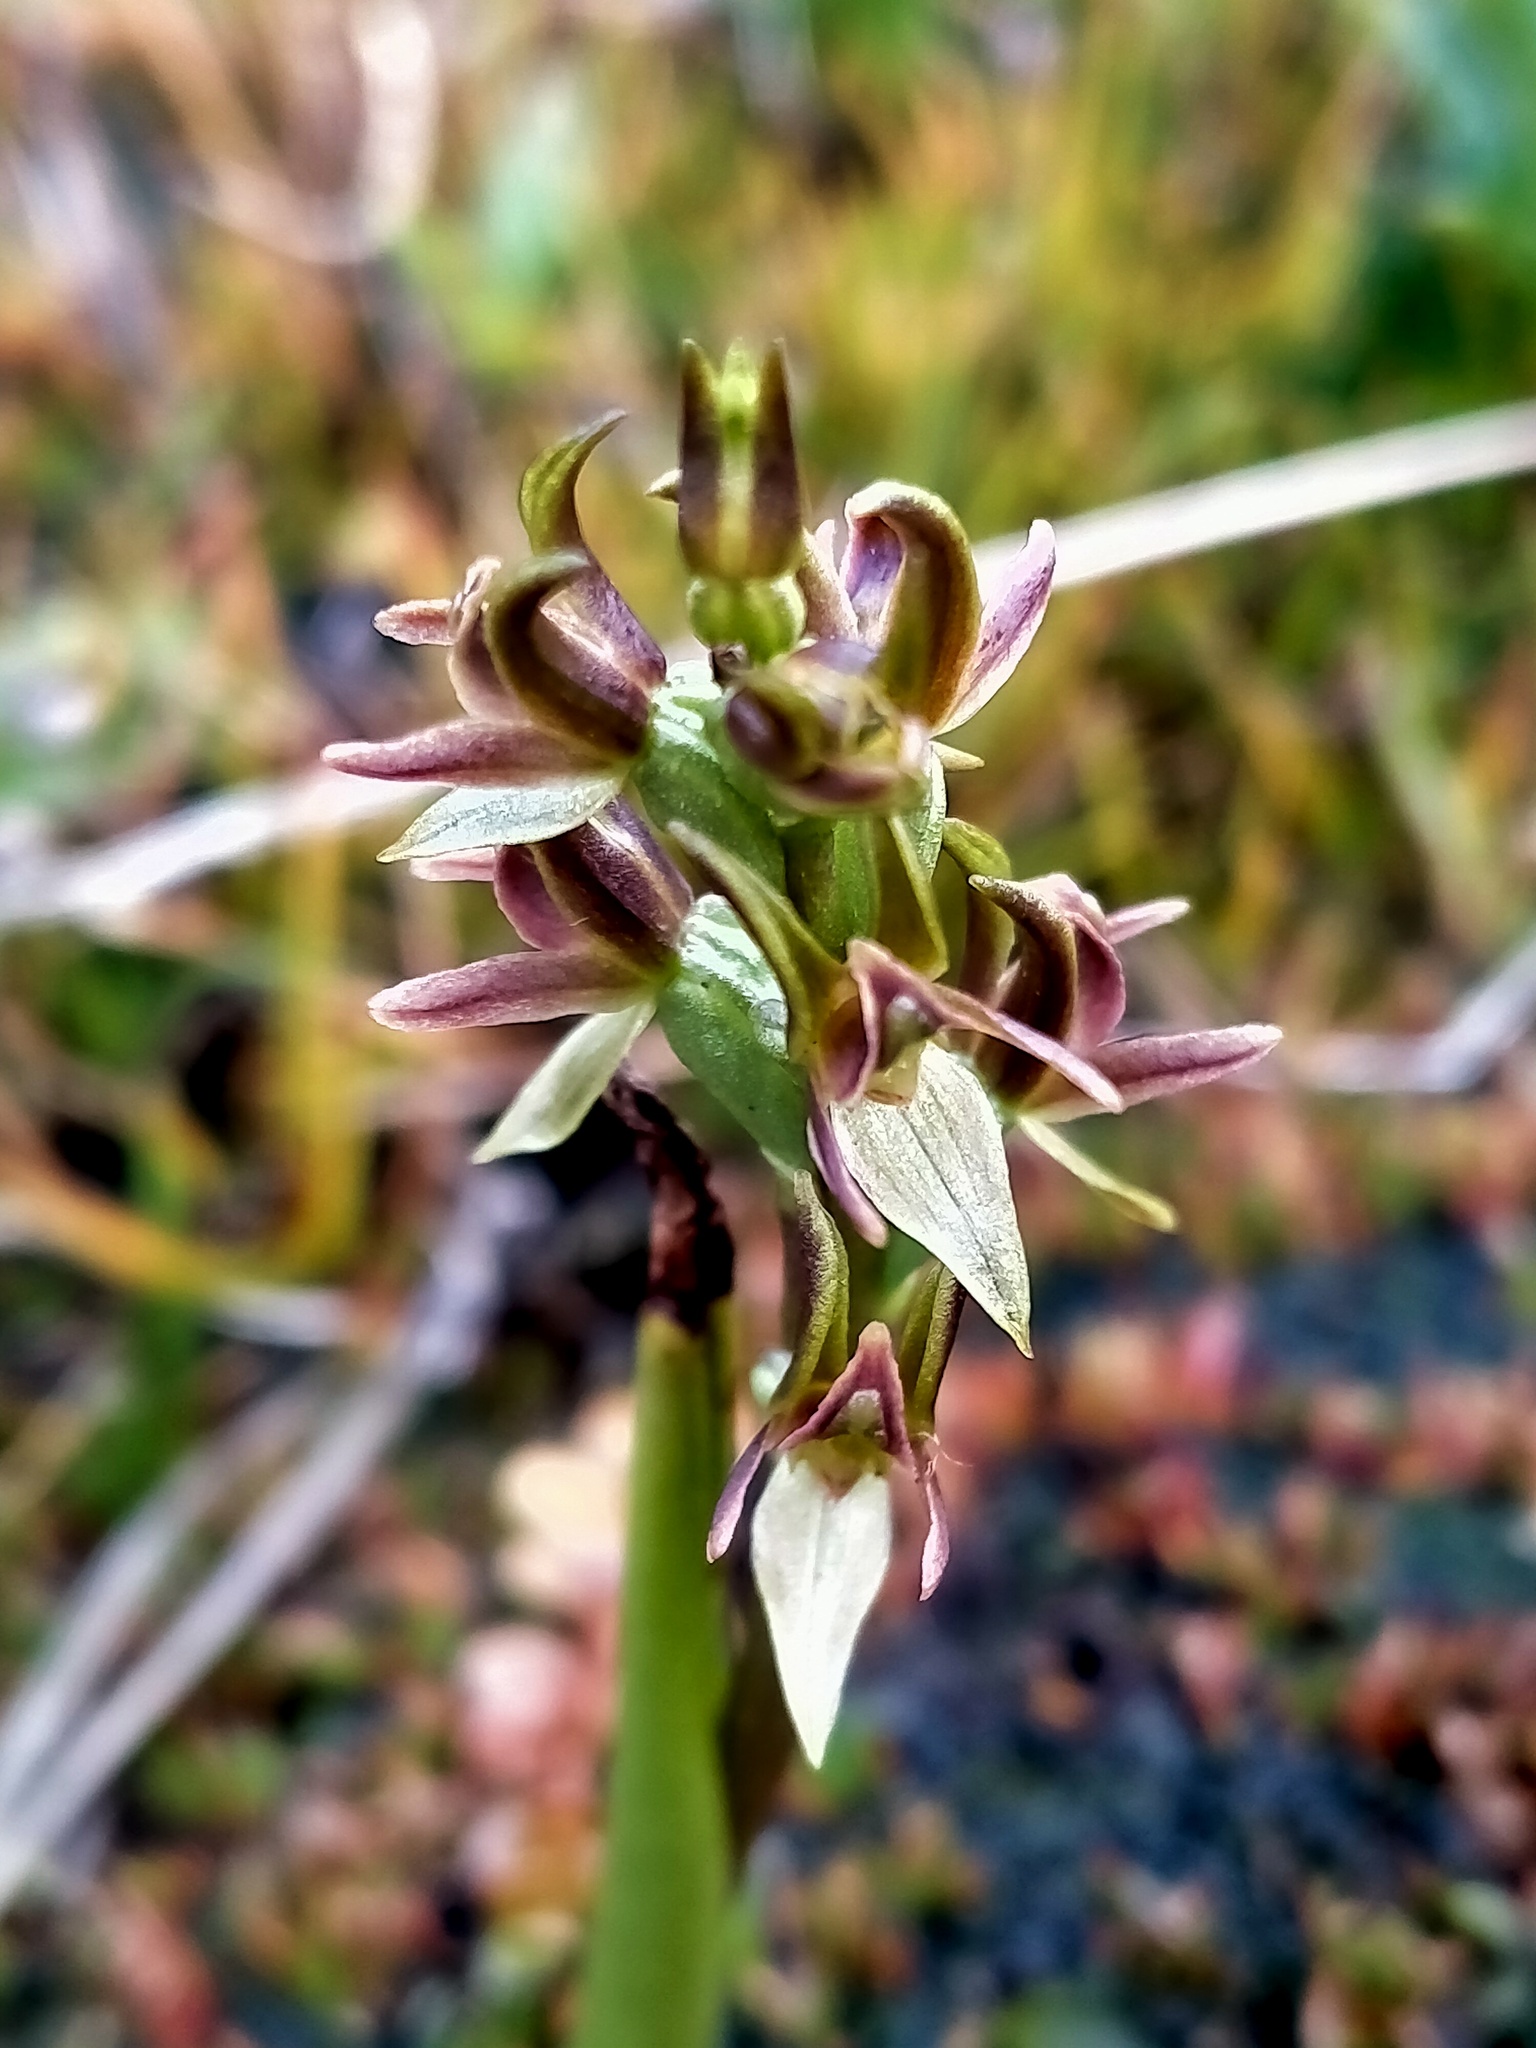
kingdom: Plantae
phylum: Tracheophyta
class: Liliopsida
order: Asparagales
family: Orchidaceae
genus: Prasophyllum
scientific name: Prasophyllum colensoi
